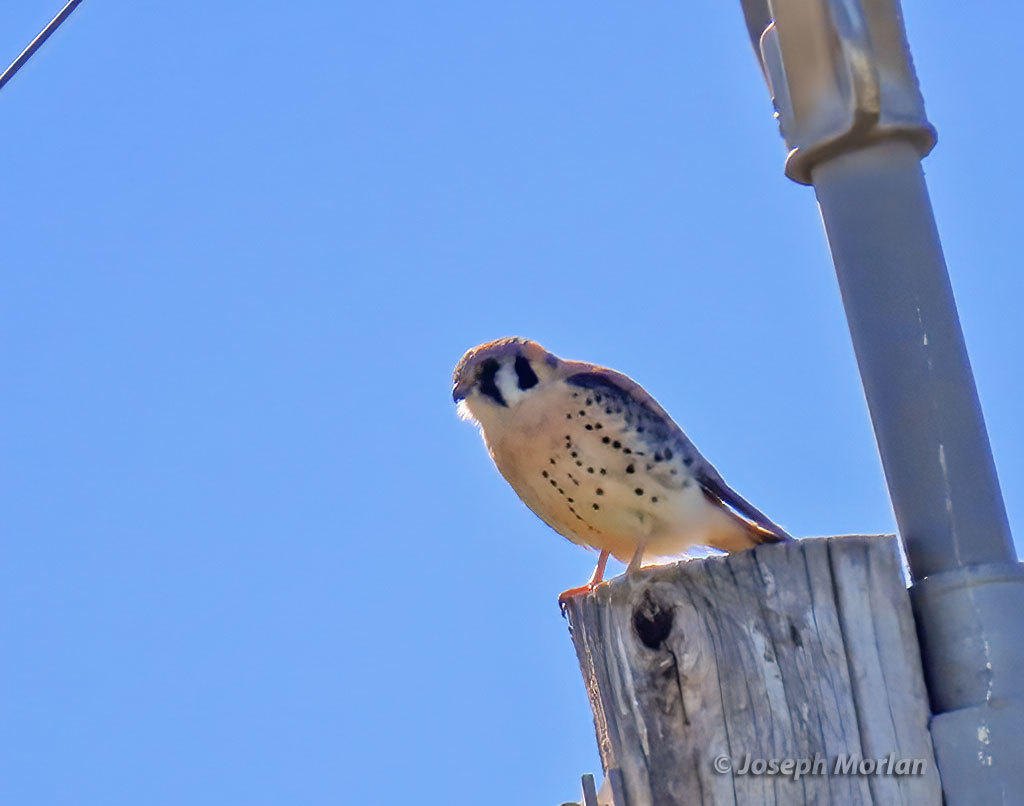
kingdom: Animalia
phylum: Chordata
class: Aves
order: Falconiformes
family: Falconidae
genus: Falco
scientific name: Falco sparverius
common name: American kestrel
